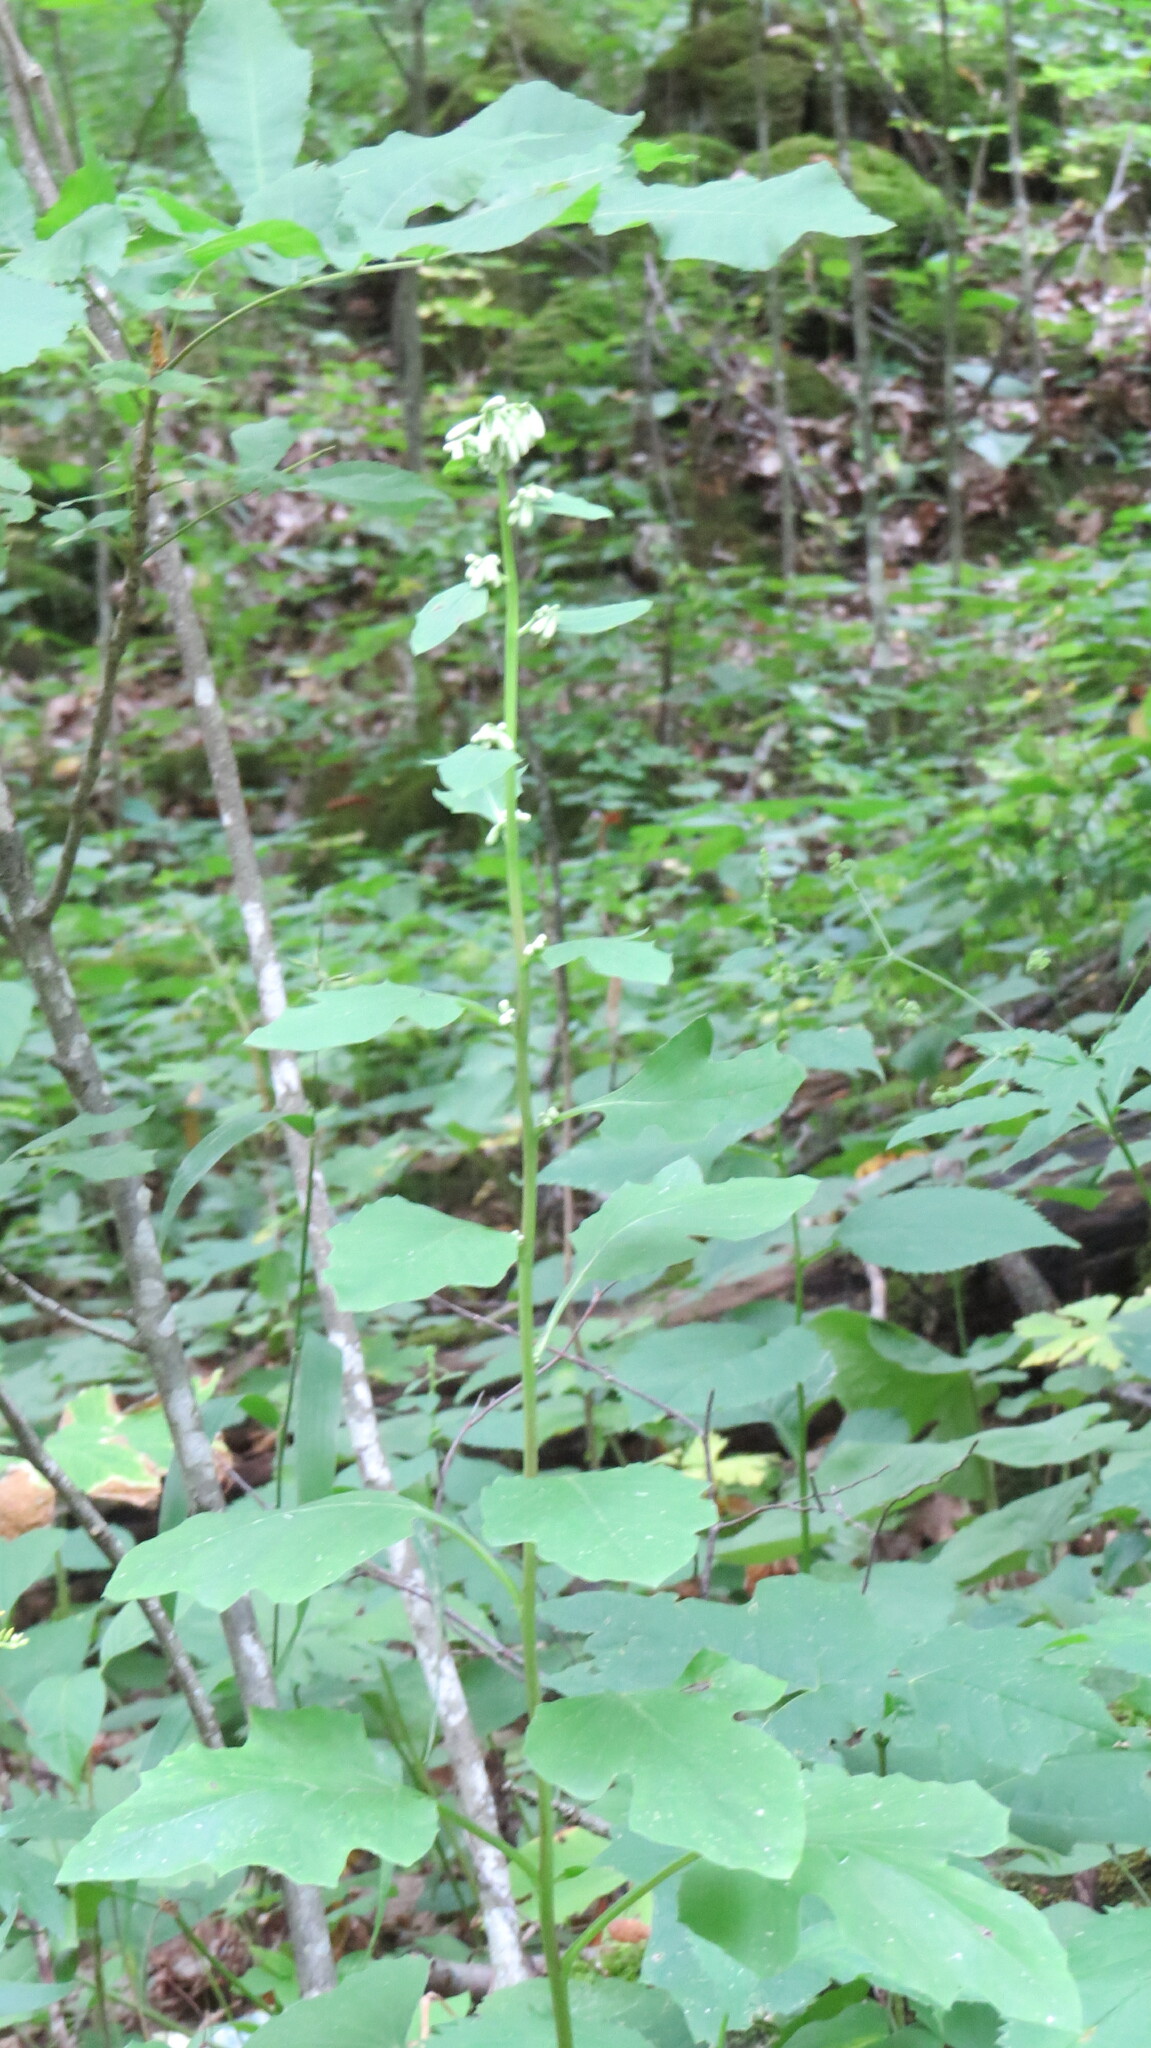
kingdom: Plantae
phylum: Tracheophyta
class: Magnoliopsida
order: Asterales
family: Asteraceae
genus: Nabalus
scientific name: Nabalus albus
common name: White rattlesnakeroot
